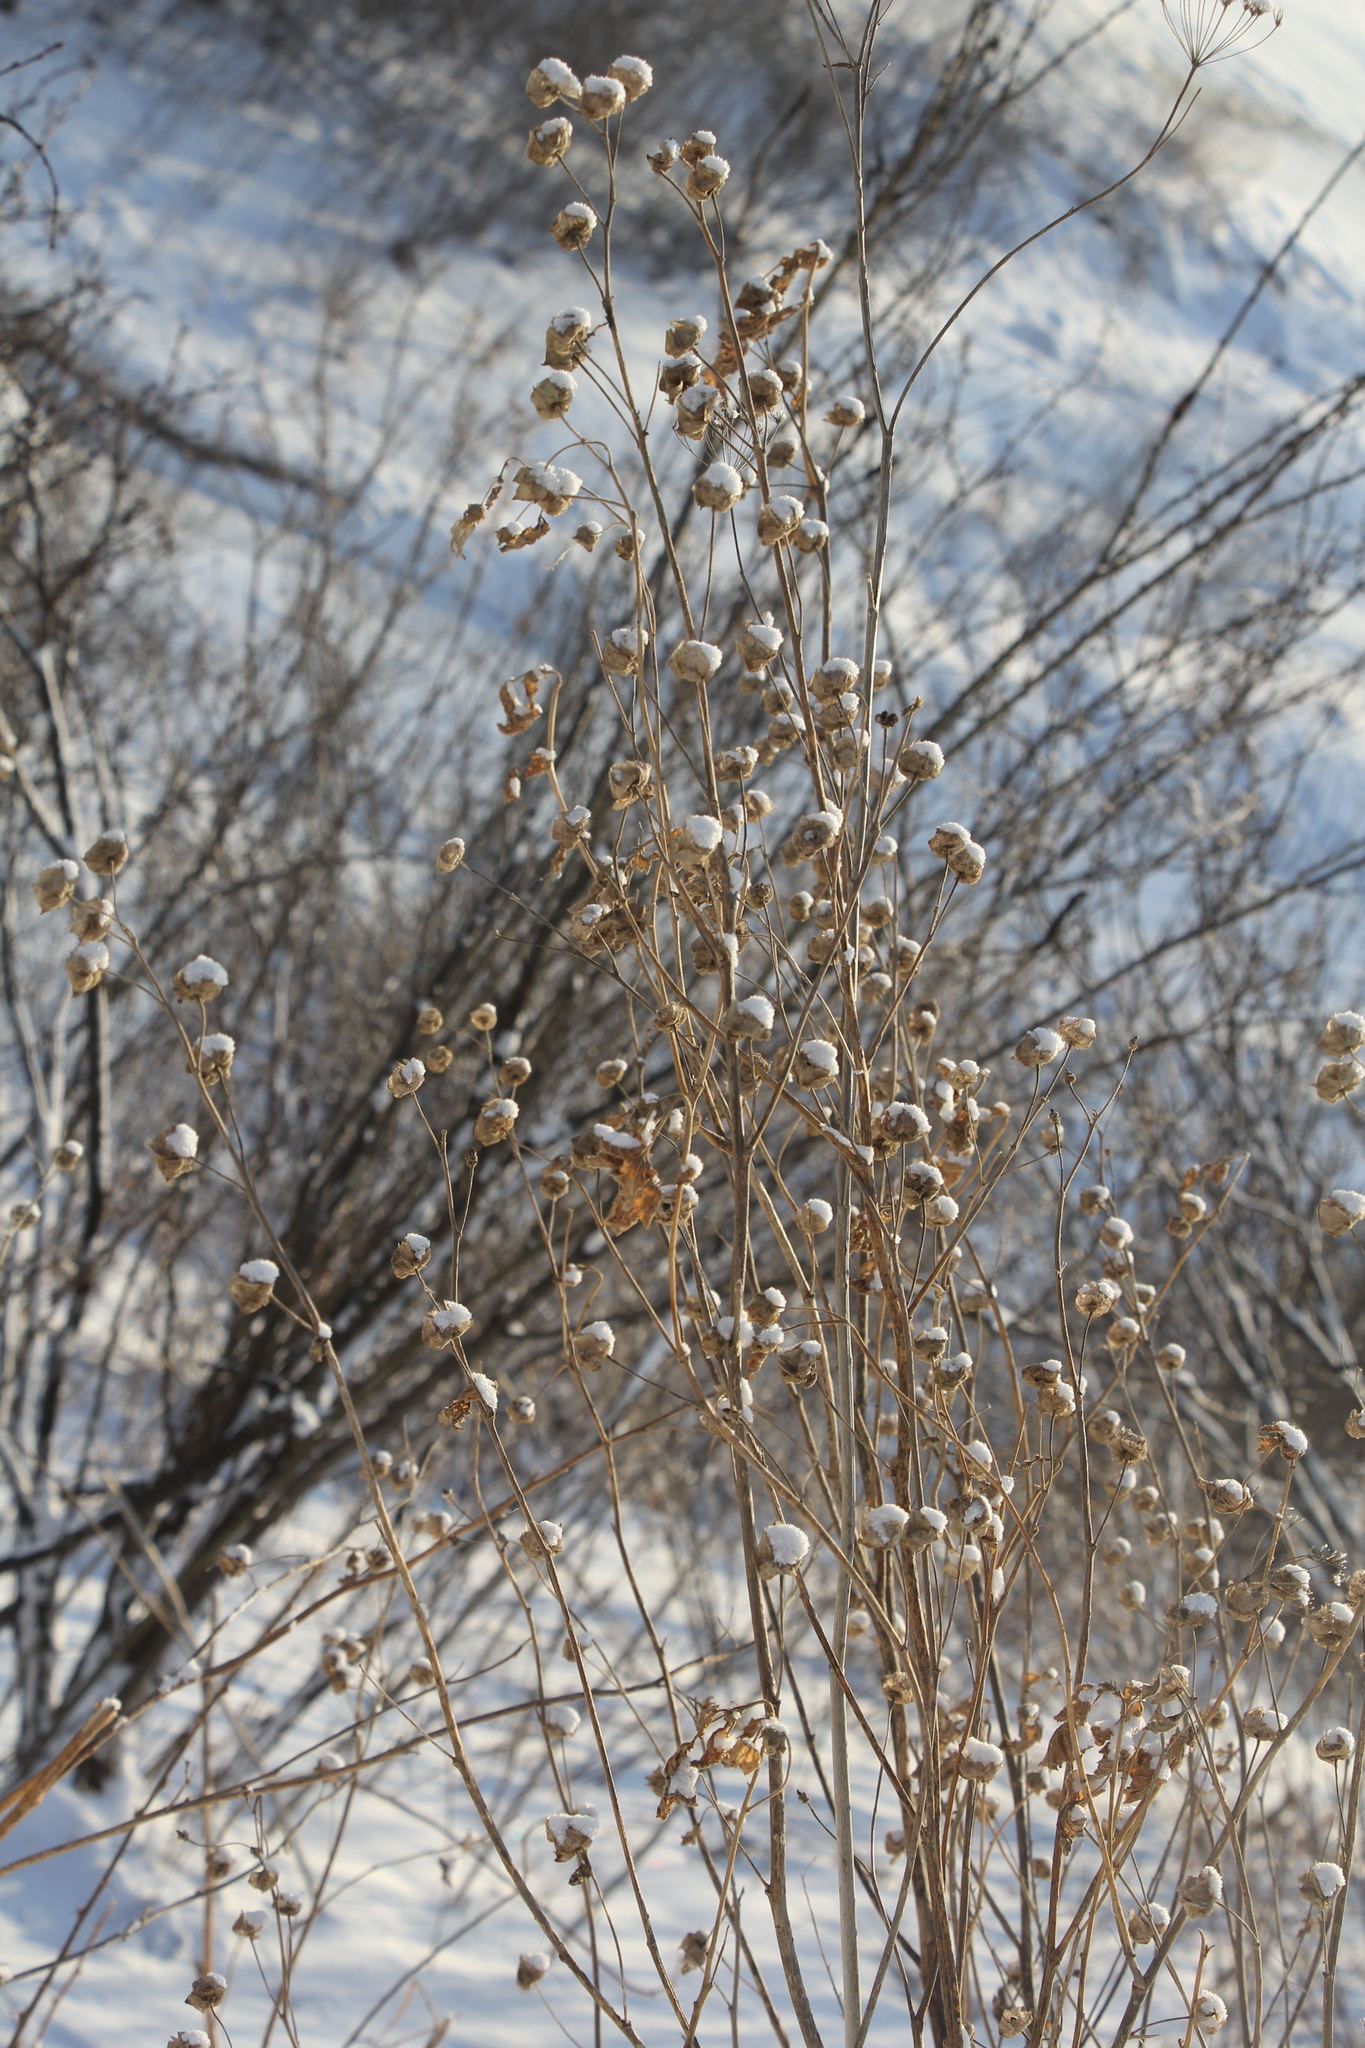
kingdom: Plantae
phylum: Tracheophyta
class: Magnoliopsida
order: Malvales
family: Malvaceae
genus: Malva
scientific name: Malva thuringiaca
